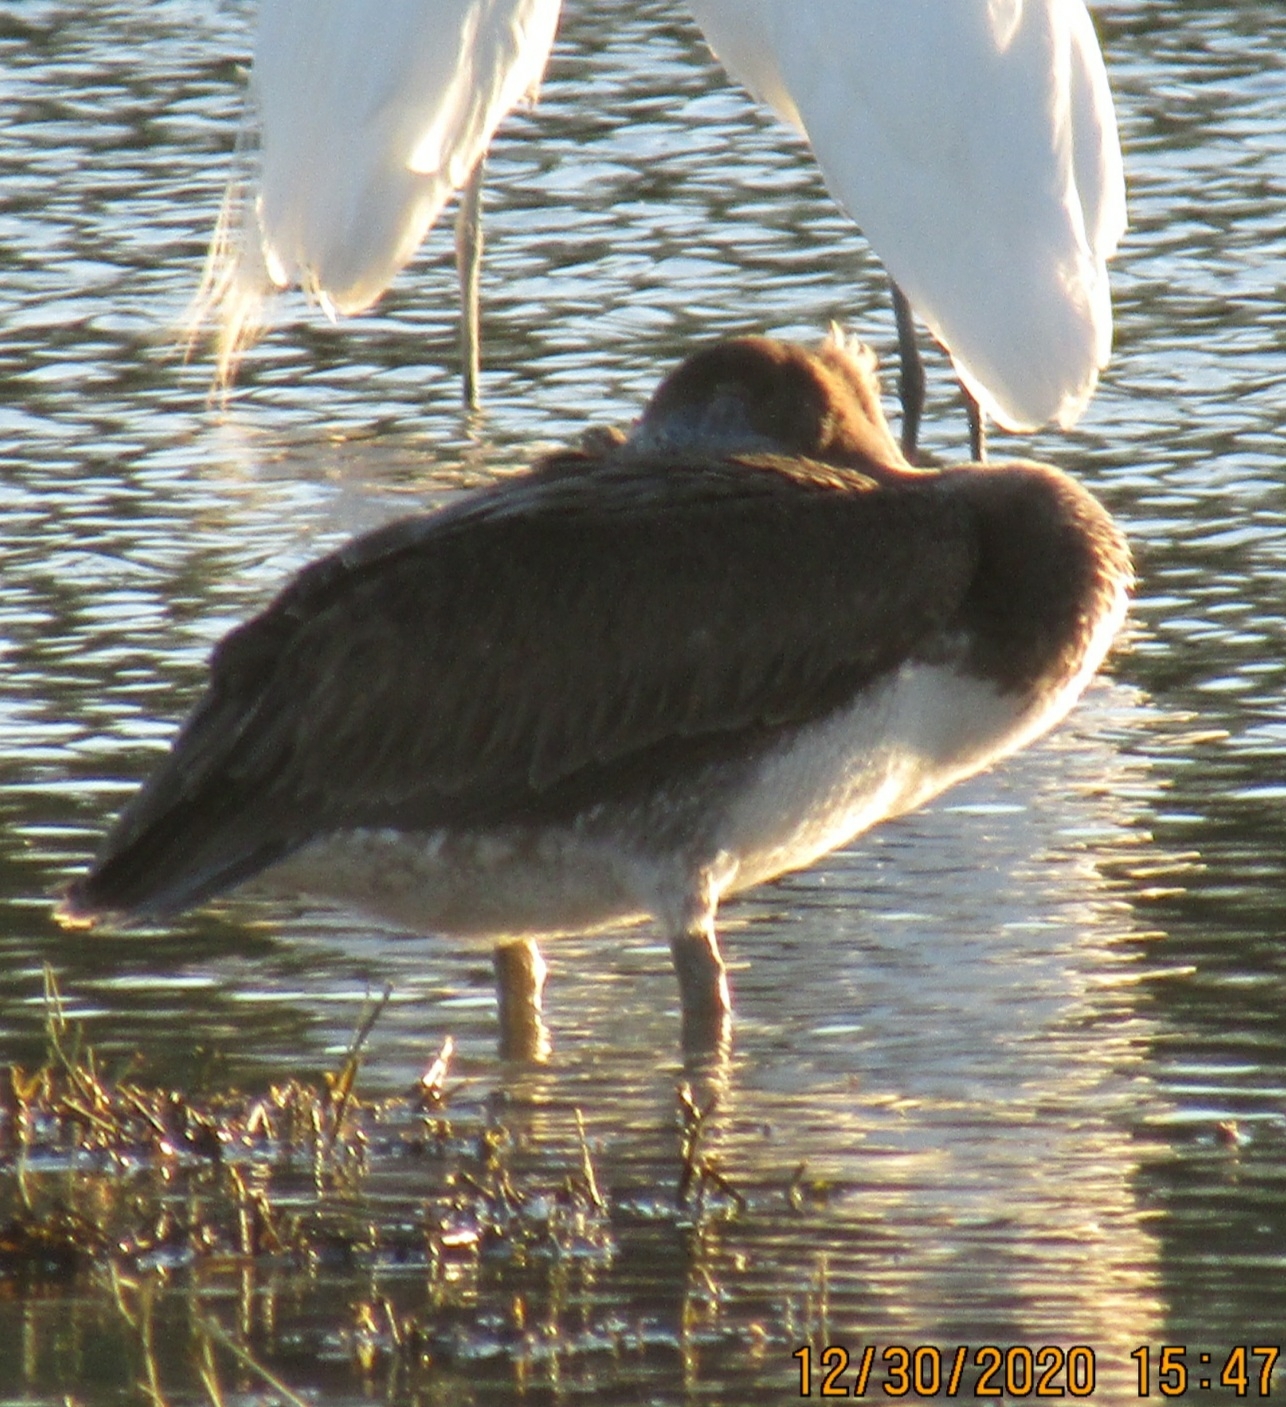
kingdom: Animalia
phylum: Chordata
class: Aves
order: Pelecaniformes
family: Pelecanidae
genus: Pelecanus
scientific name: Pelecanus occidentalis
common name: Brown pelican
